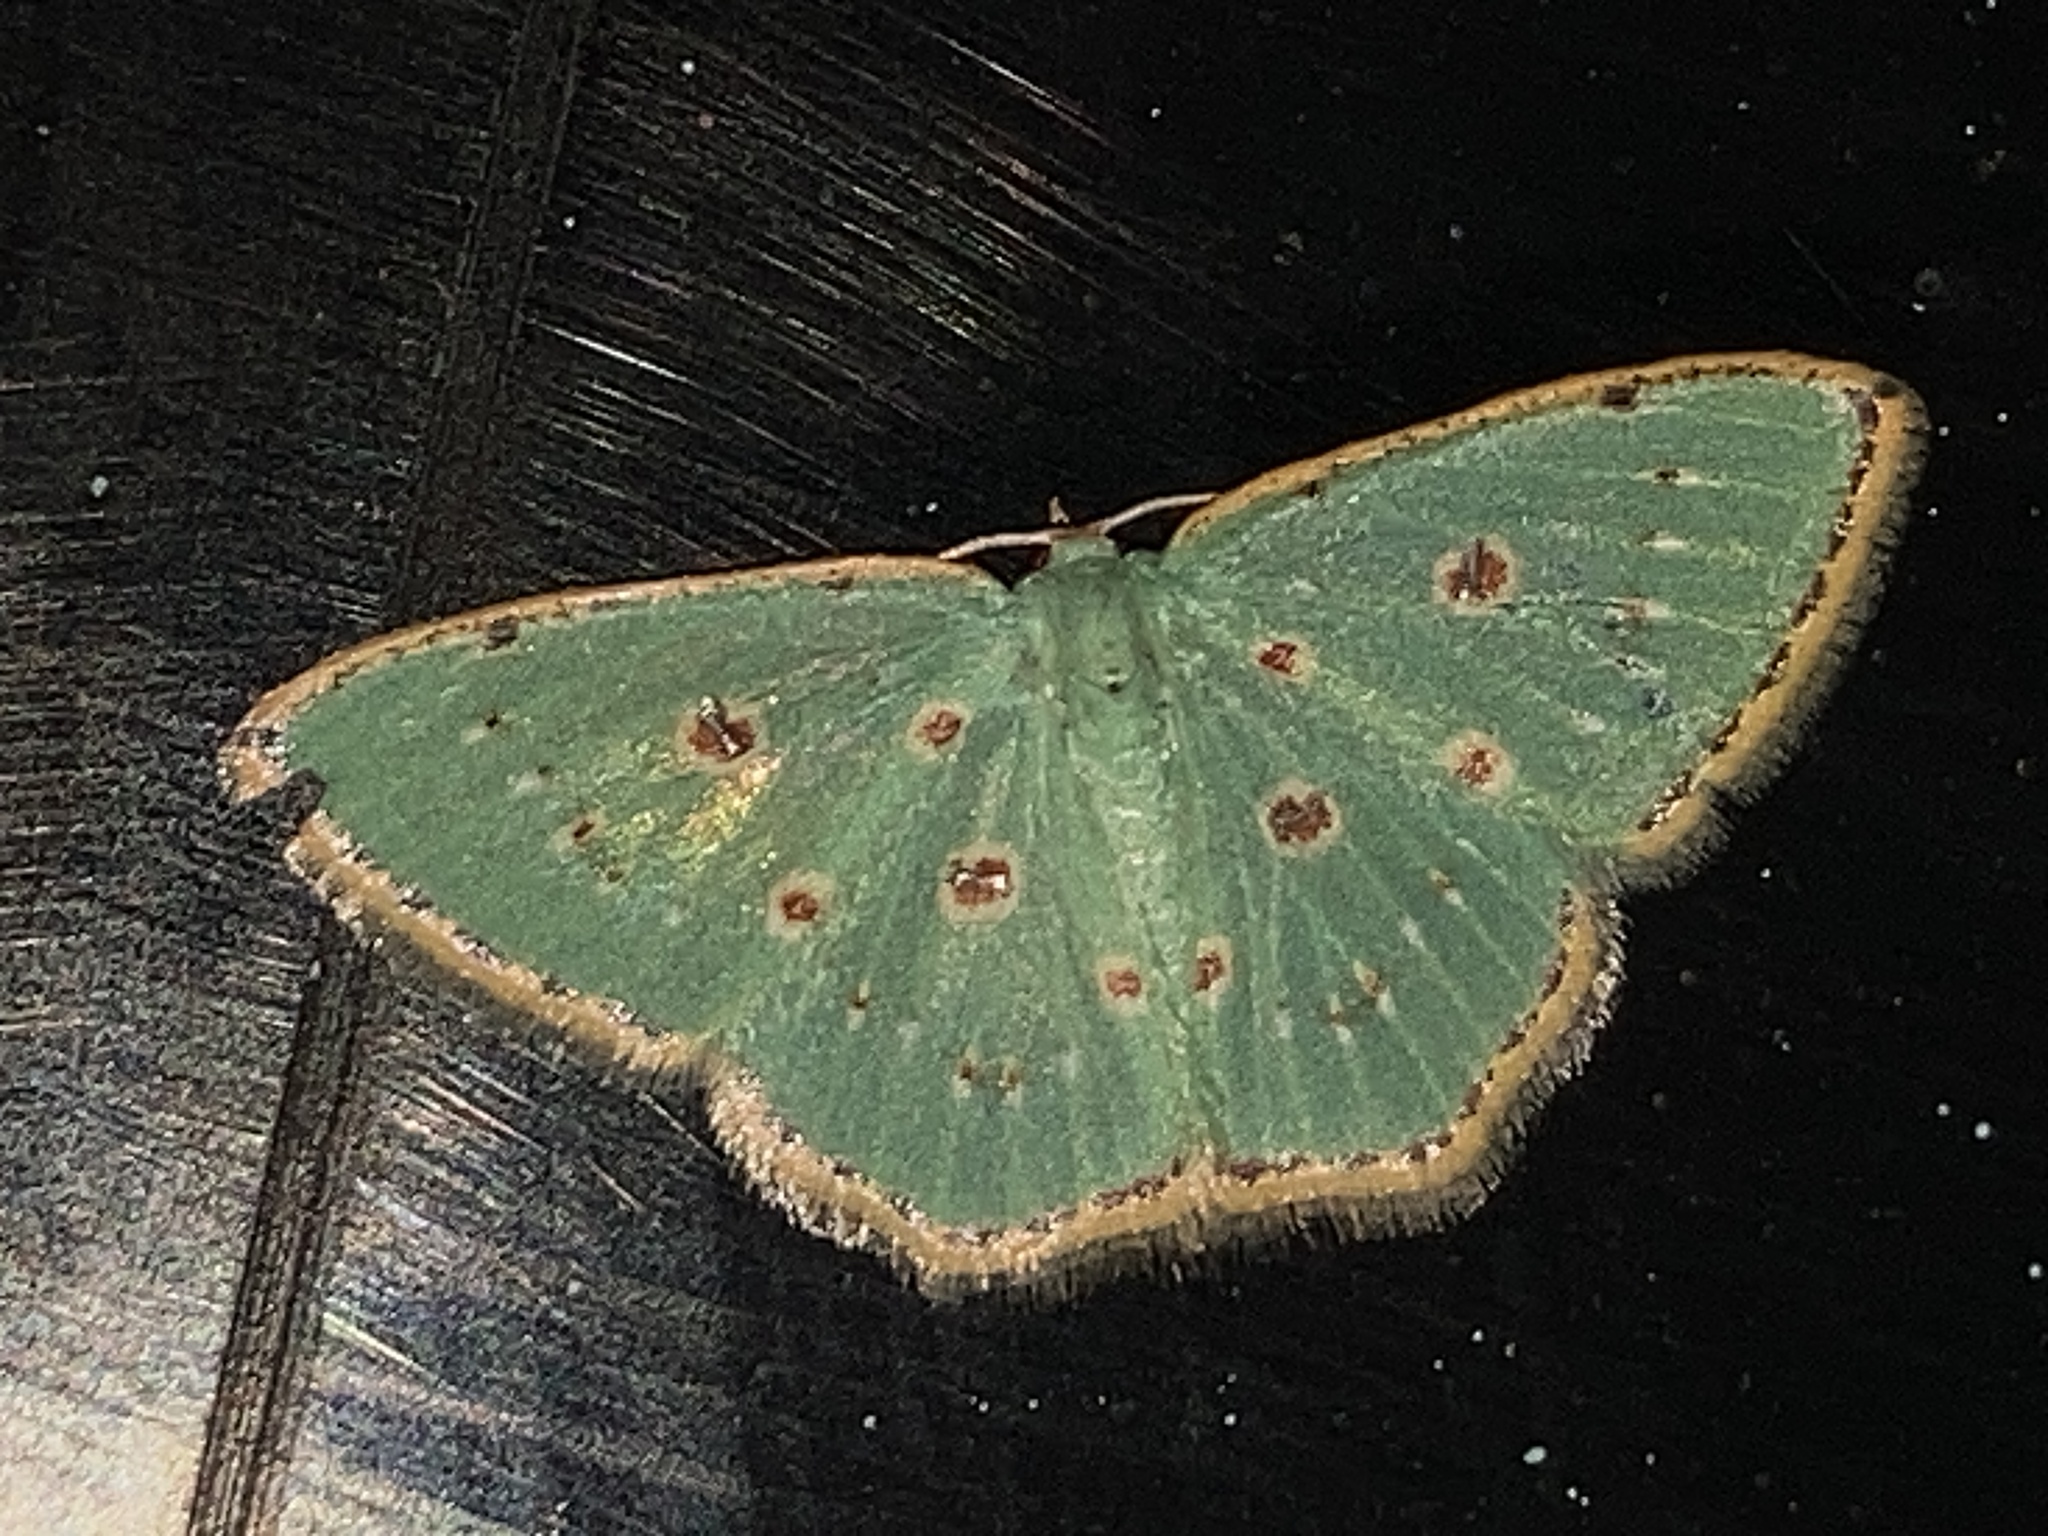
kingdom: Animalia
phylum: Arthropoda
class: Insecta
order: Lepidoptera
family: Geometridae
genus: Comostola
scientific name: Comostola laesaria
